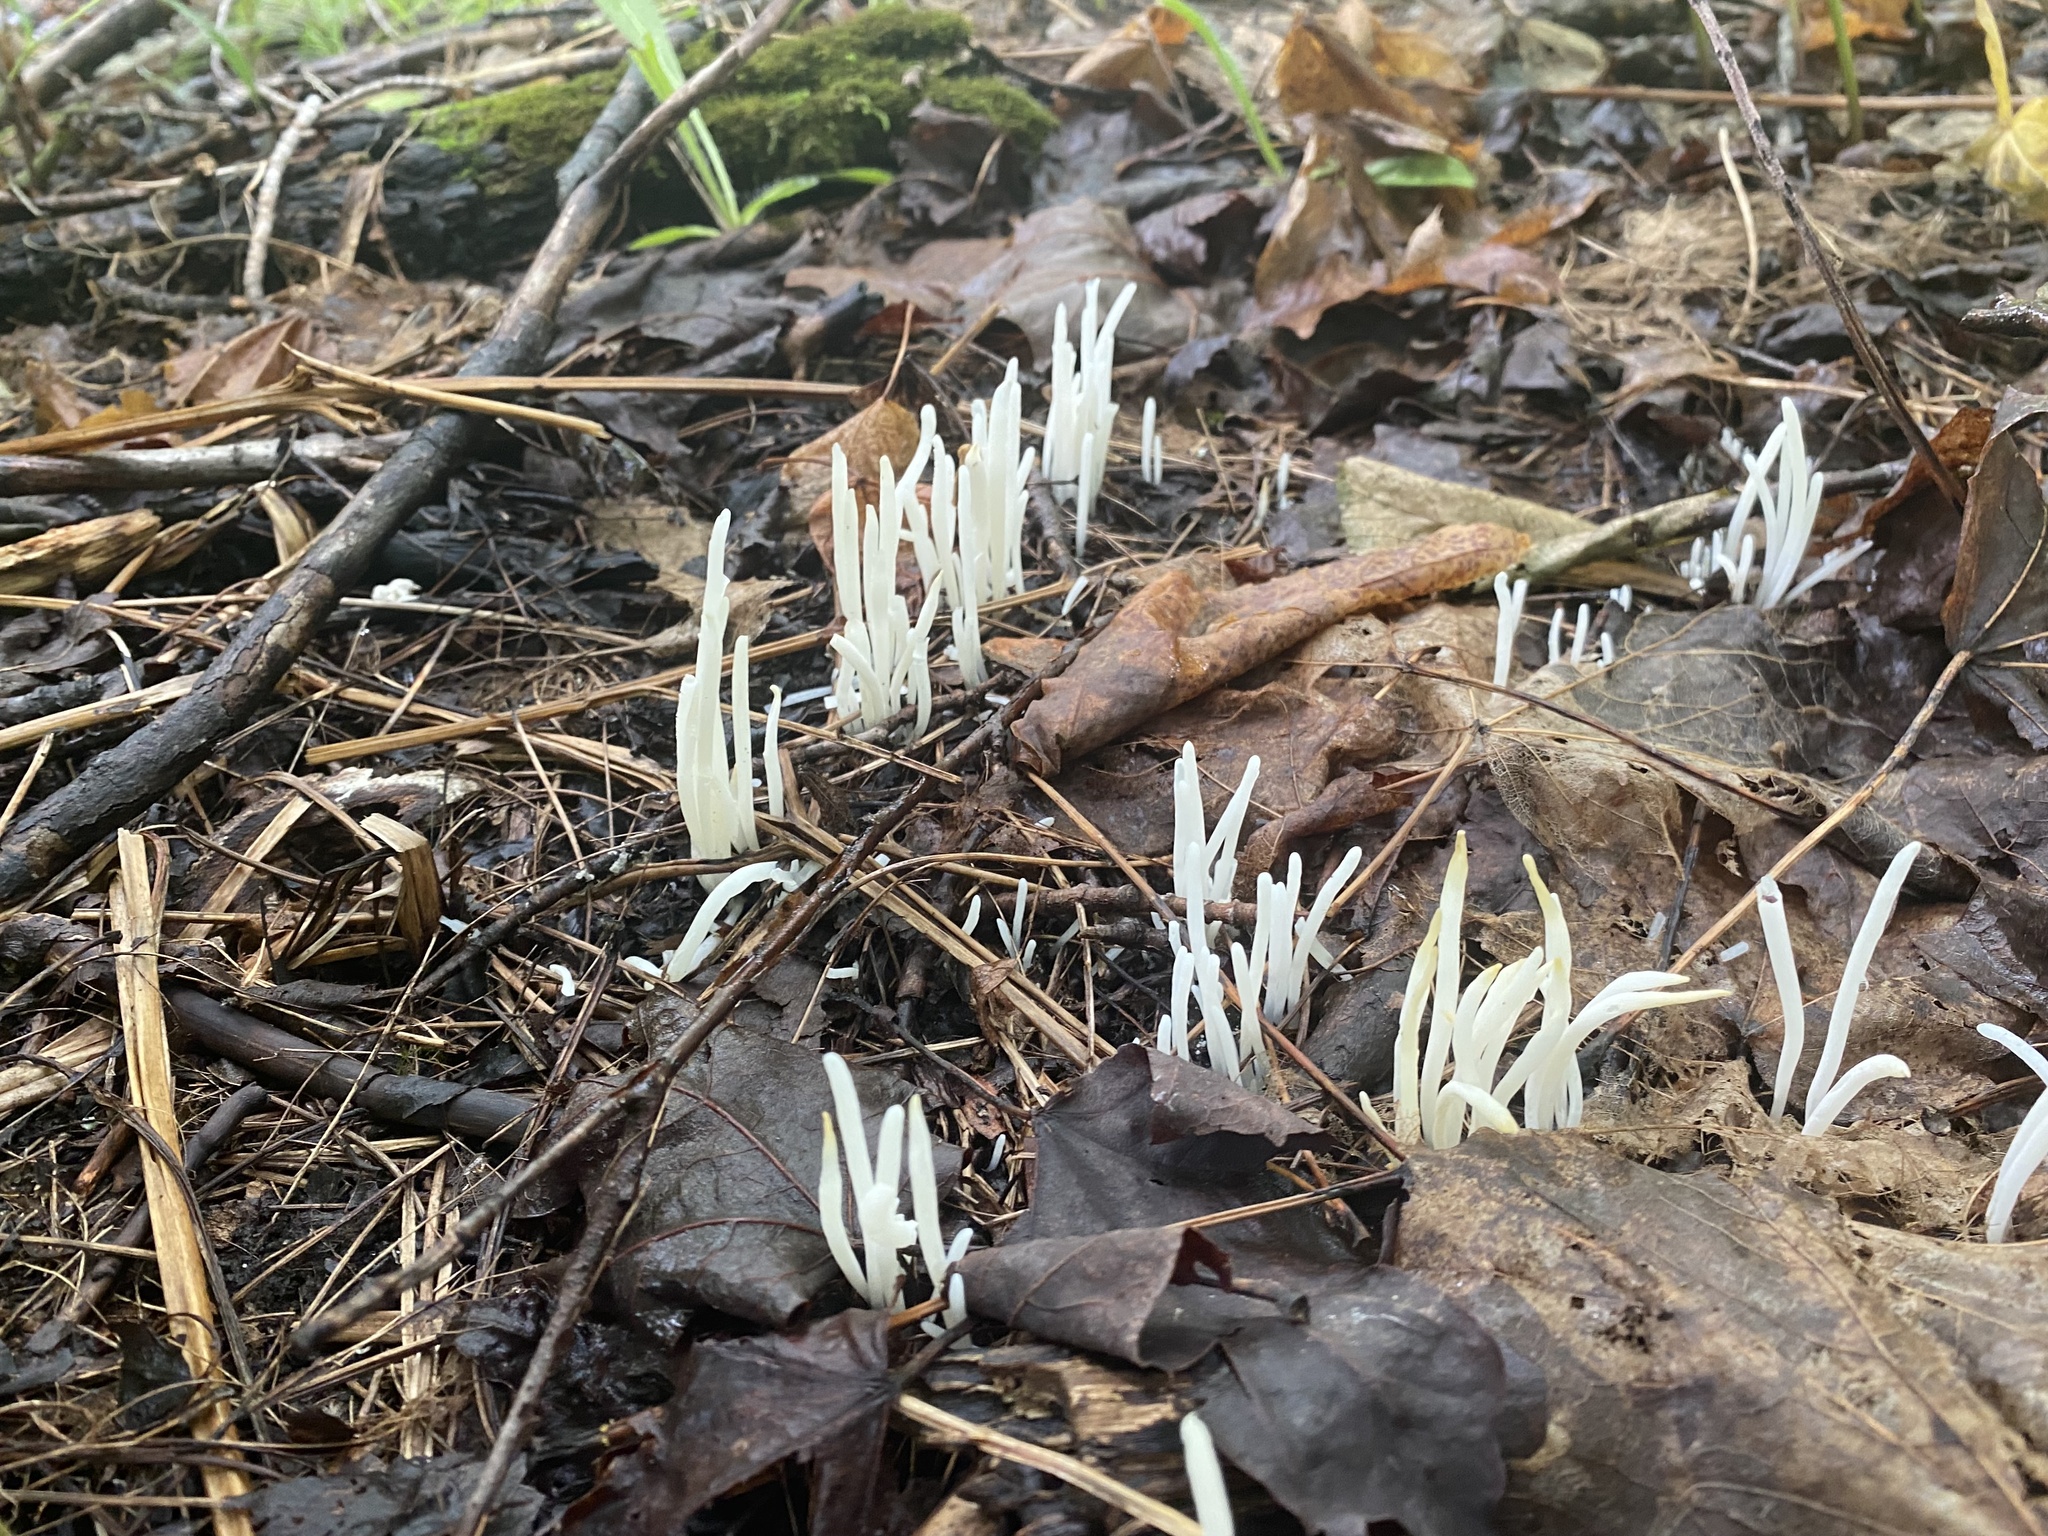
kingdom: Fungi
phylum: Basidiomycota
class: Agaricomycetes
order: Agaricales
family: Clavariaceae
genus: Clavaria
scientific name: Clavaria fragilis
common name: White spindles
